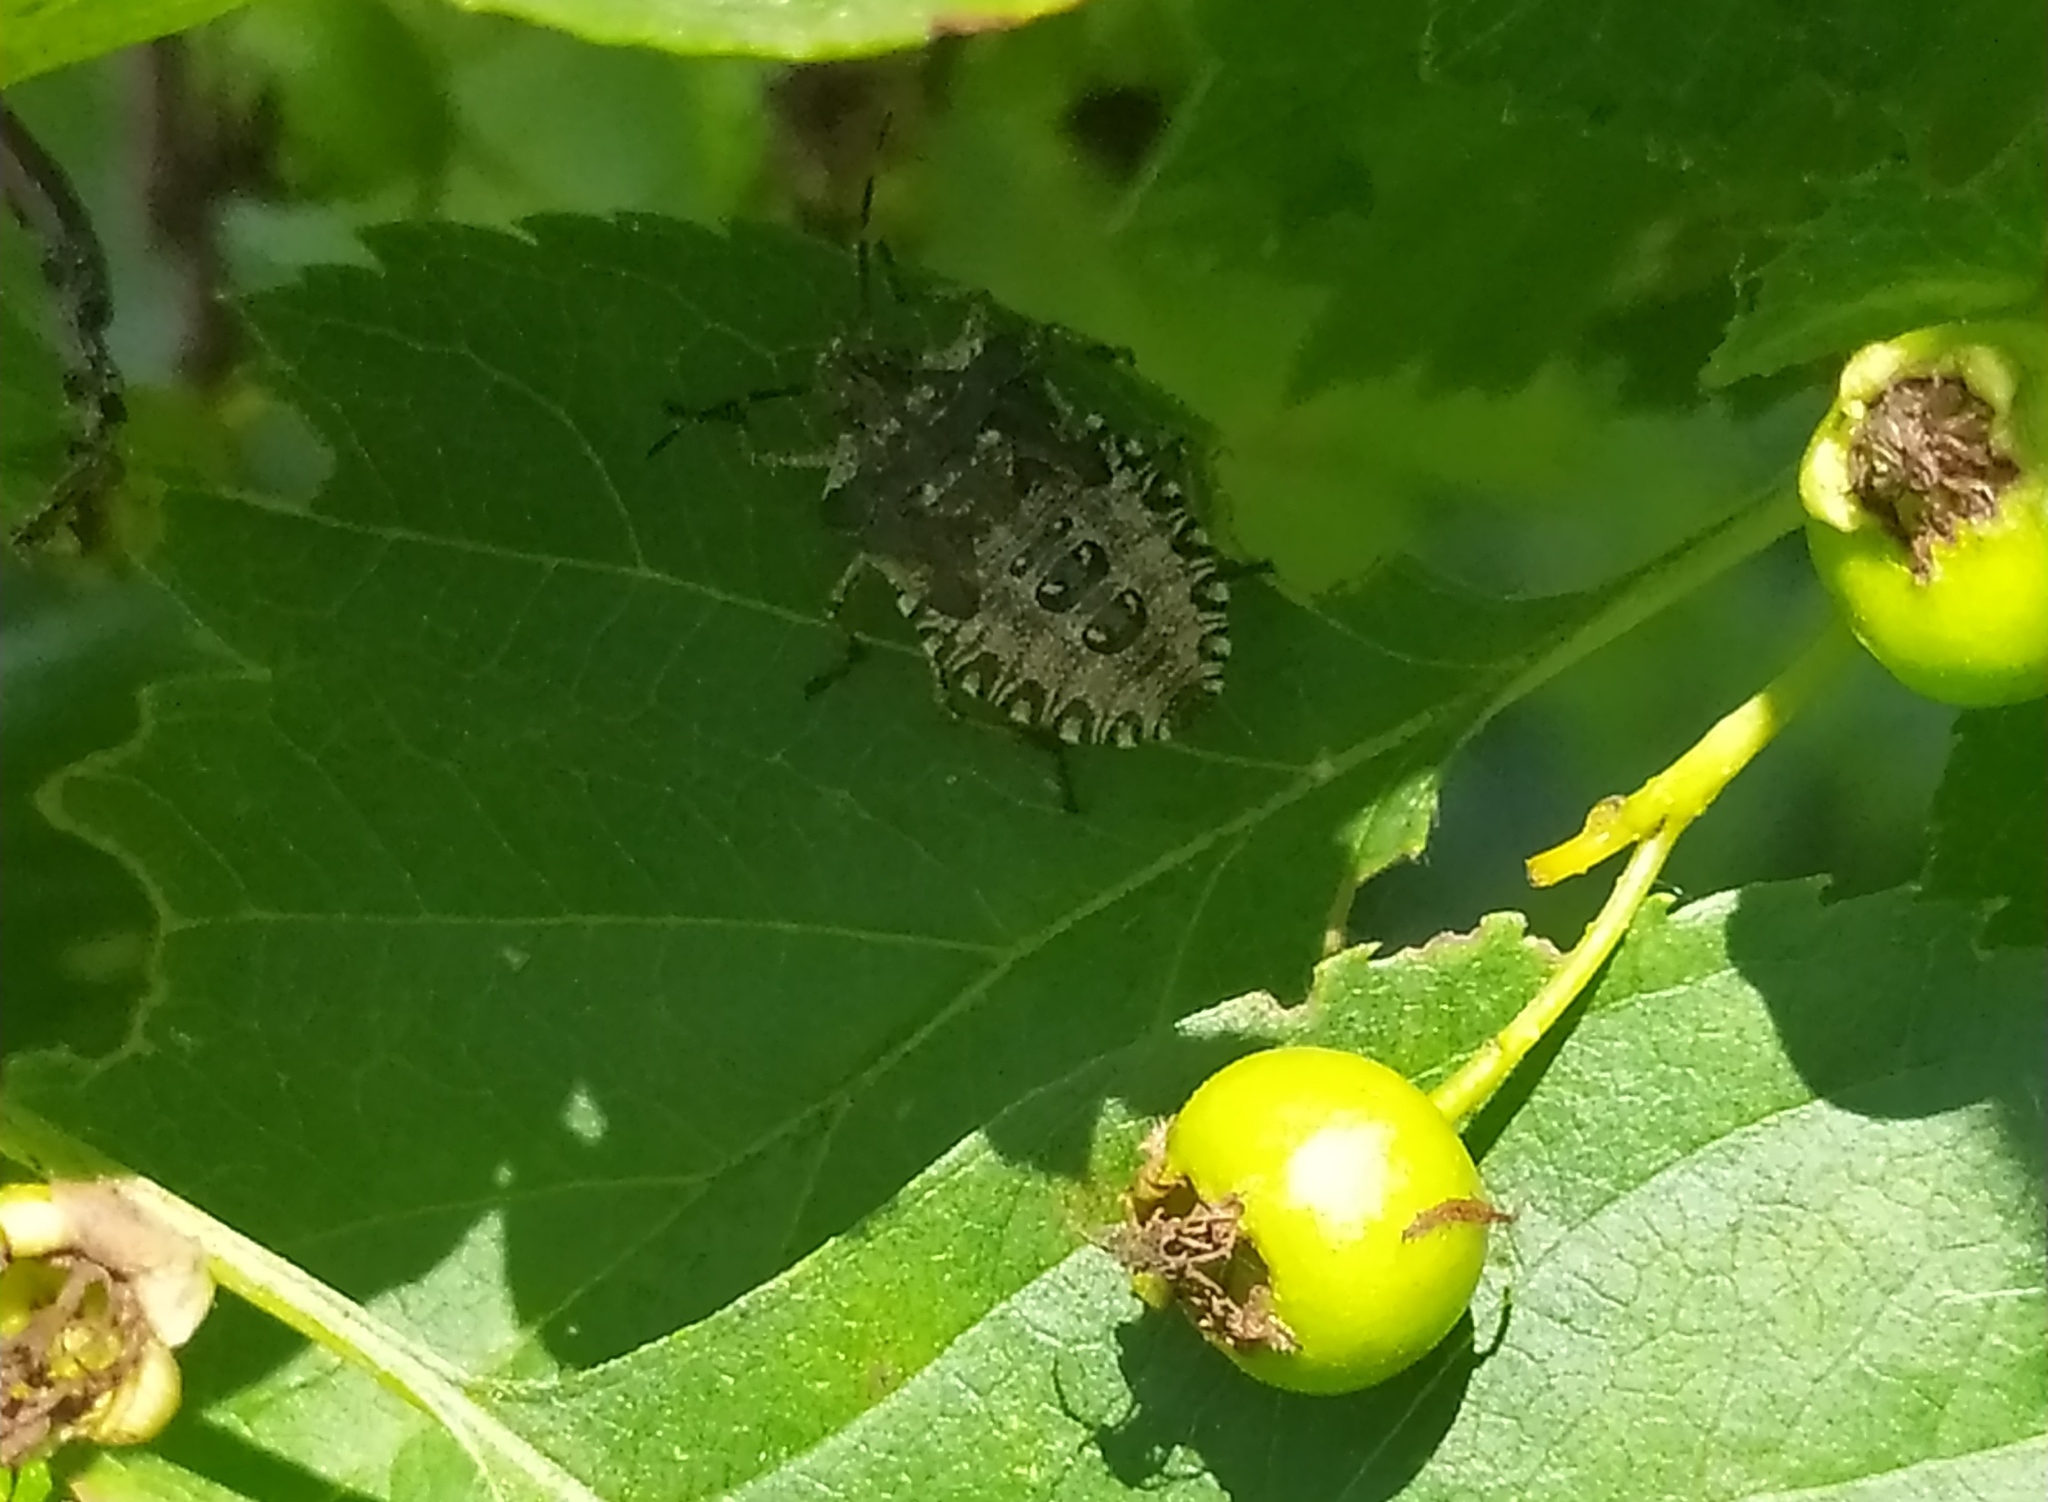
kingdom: Animalia
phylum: Arthropoda
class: Insecta
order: Hemiptera
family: Pentatomidae
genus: Pentatoma
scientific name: Pentatoma rufipes
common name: Forest bug
